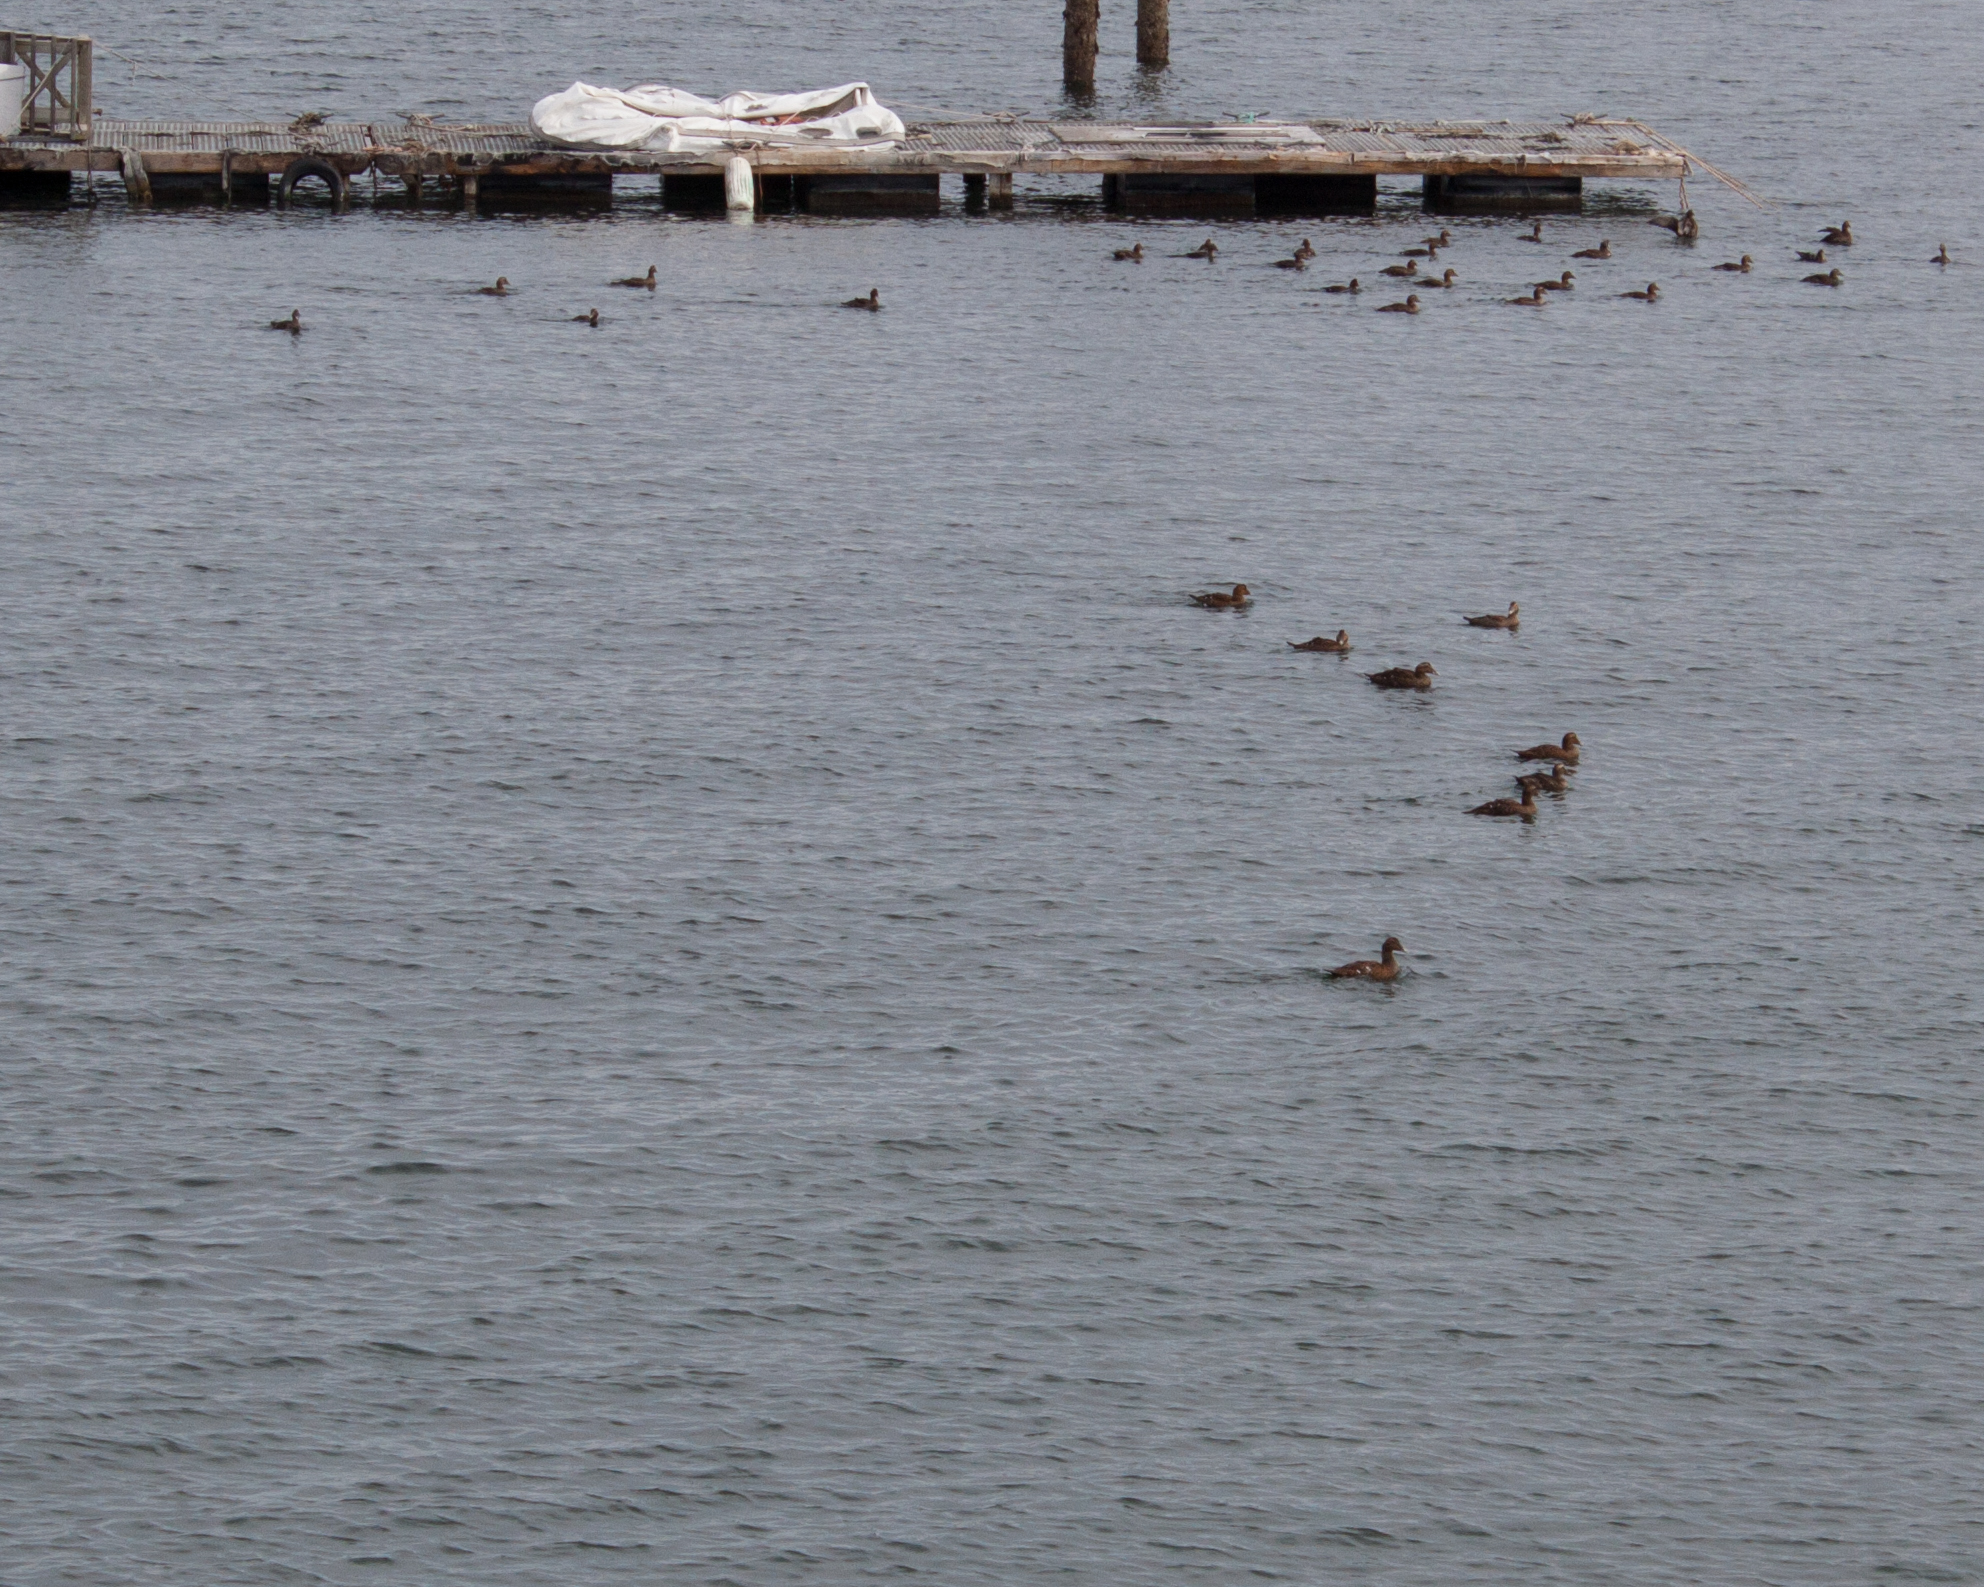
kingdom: Animalia
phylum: Chordata
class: Aves
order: Anseriformes
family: Anatidae
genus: Somateria
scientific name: Somateria mollissima
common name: Common eider
